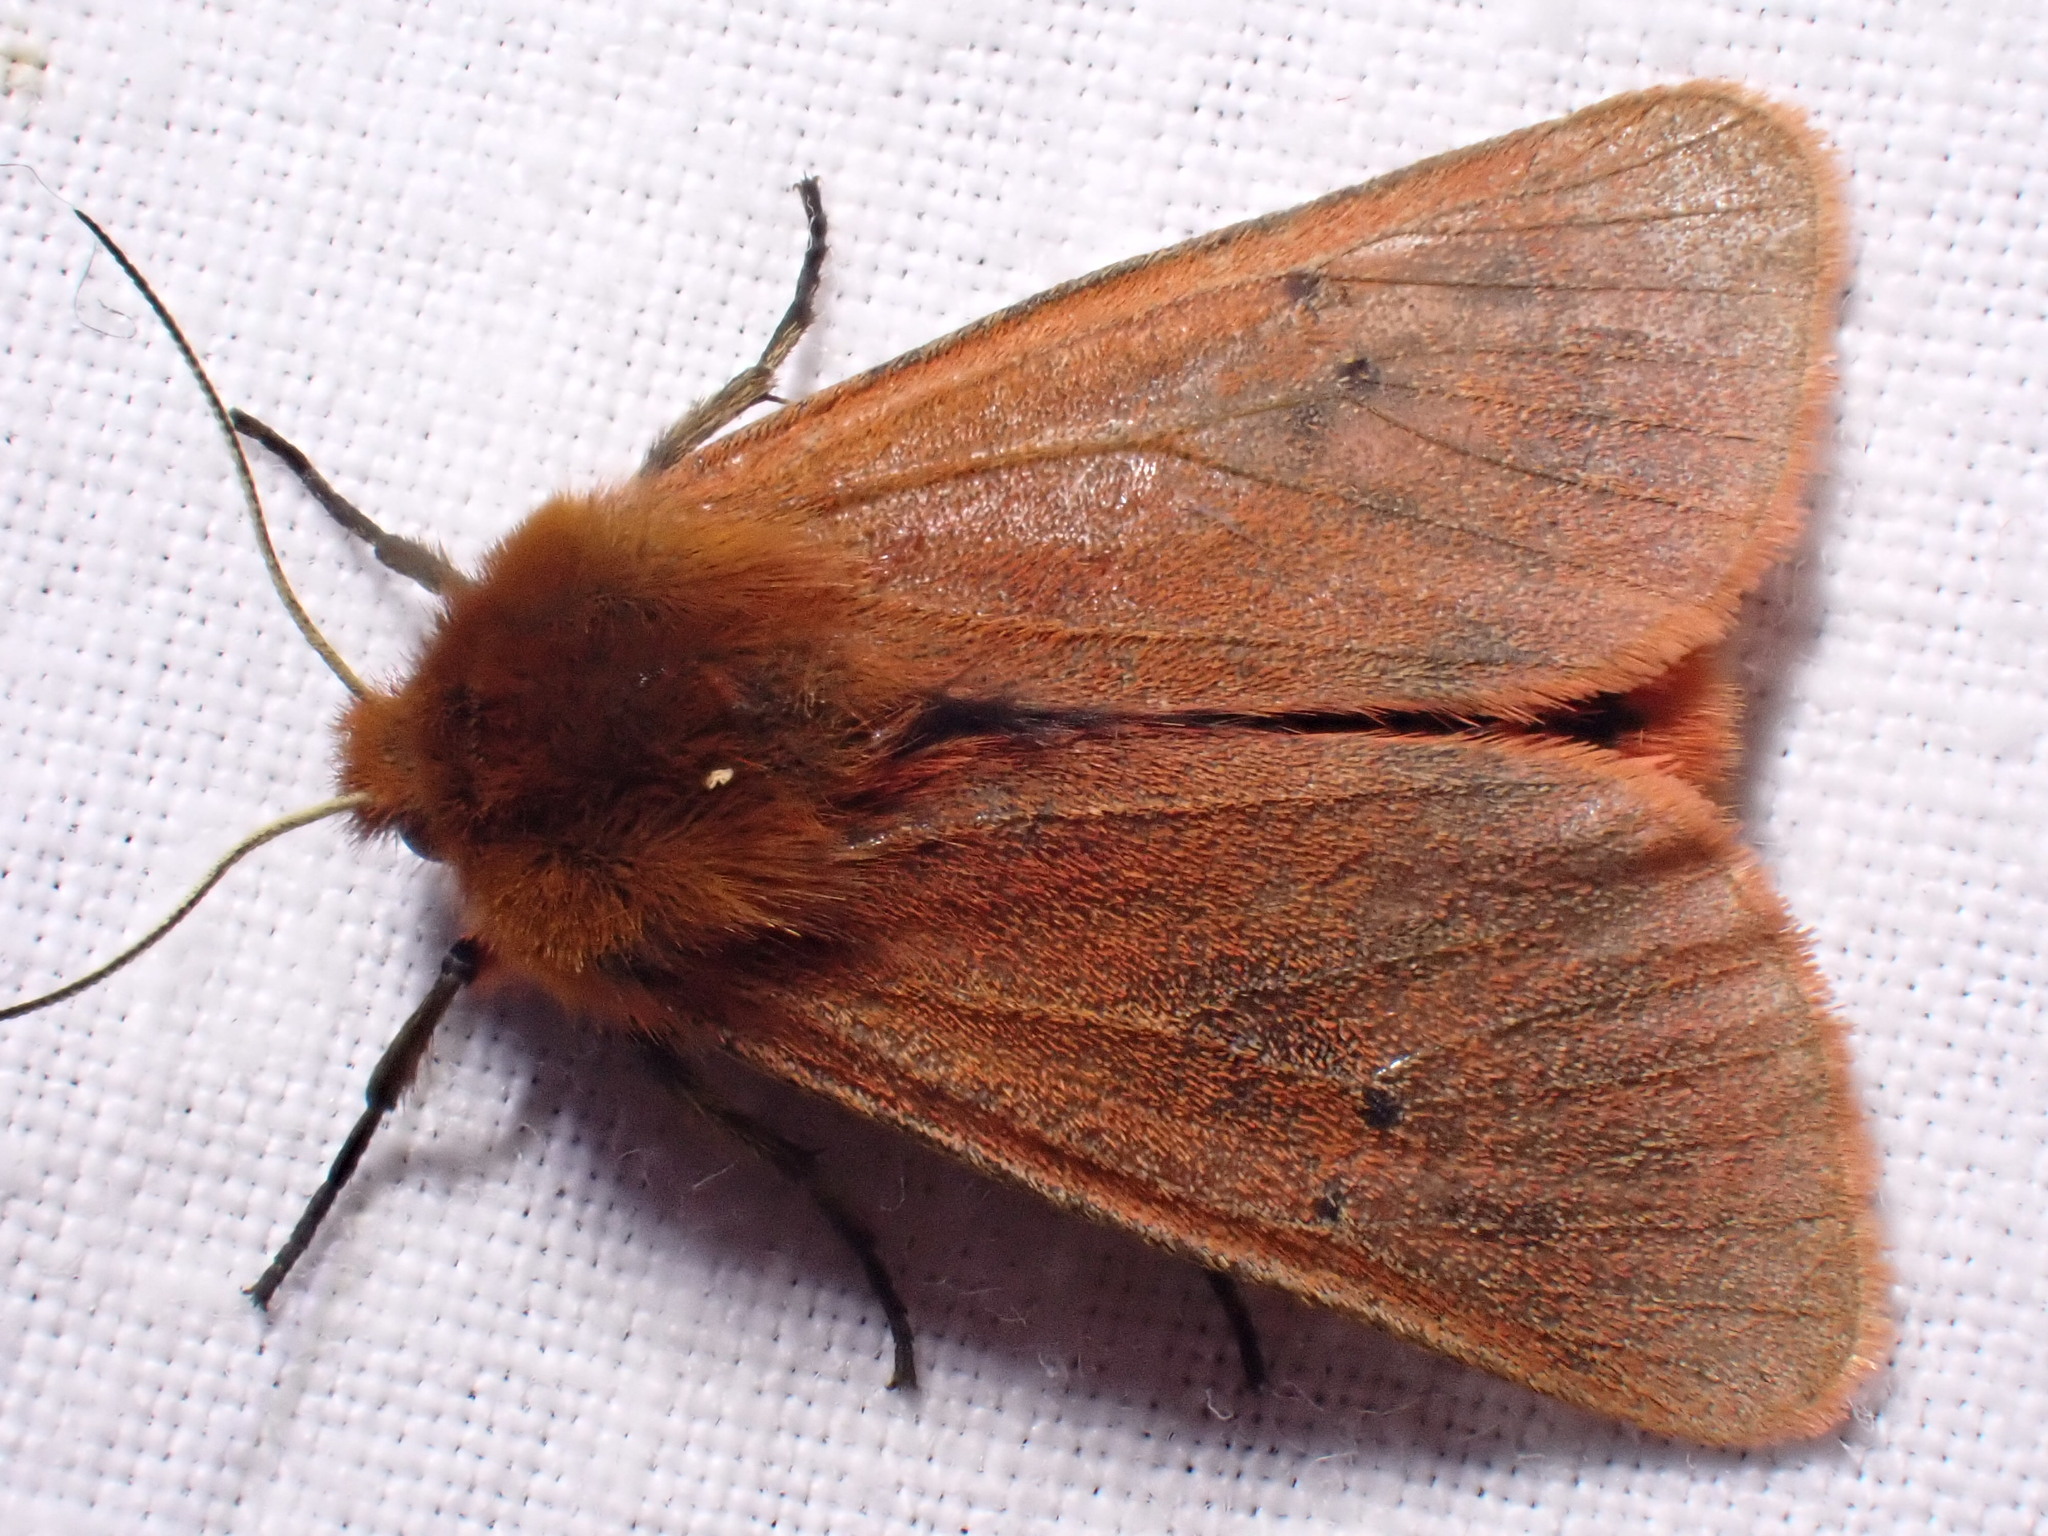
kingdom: Animalia
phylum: Arthropoda
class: Insecta
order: Lepidoptera
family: Erebidae
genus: Phragmatobia
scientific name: Phragmatobia fuliginosa
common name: Ruby tiger
